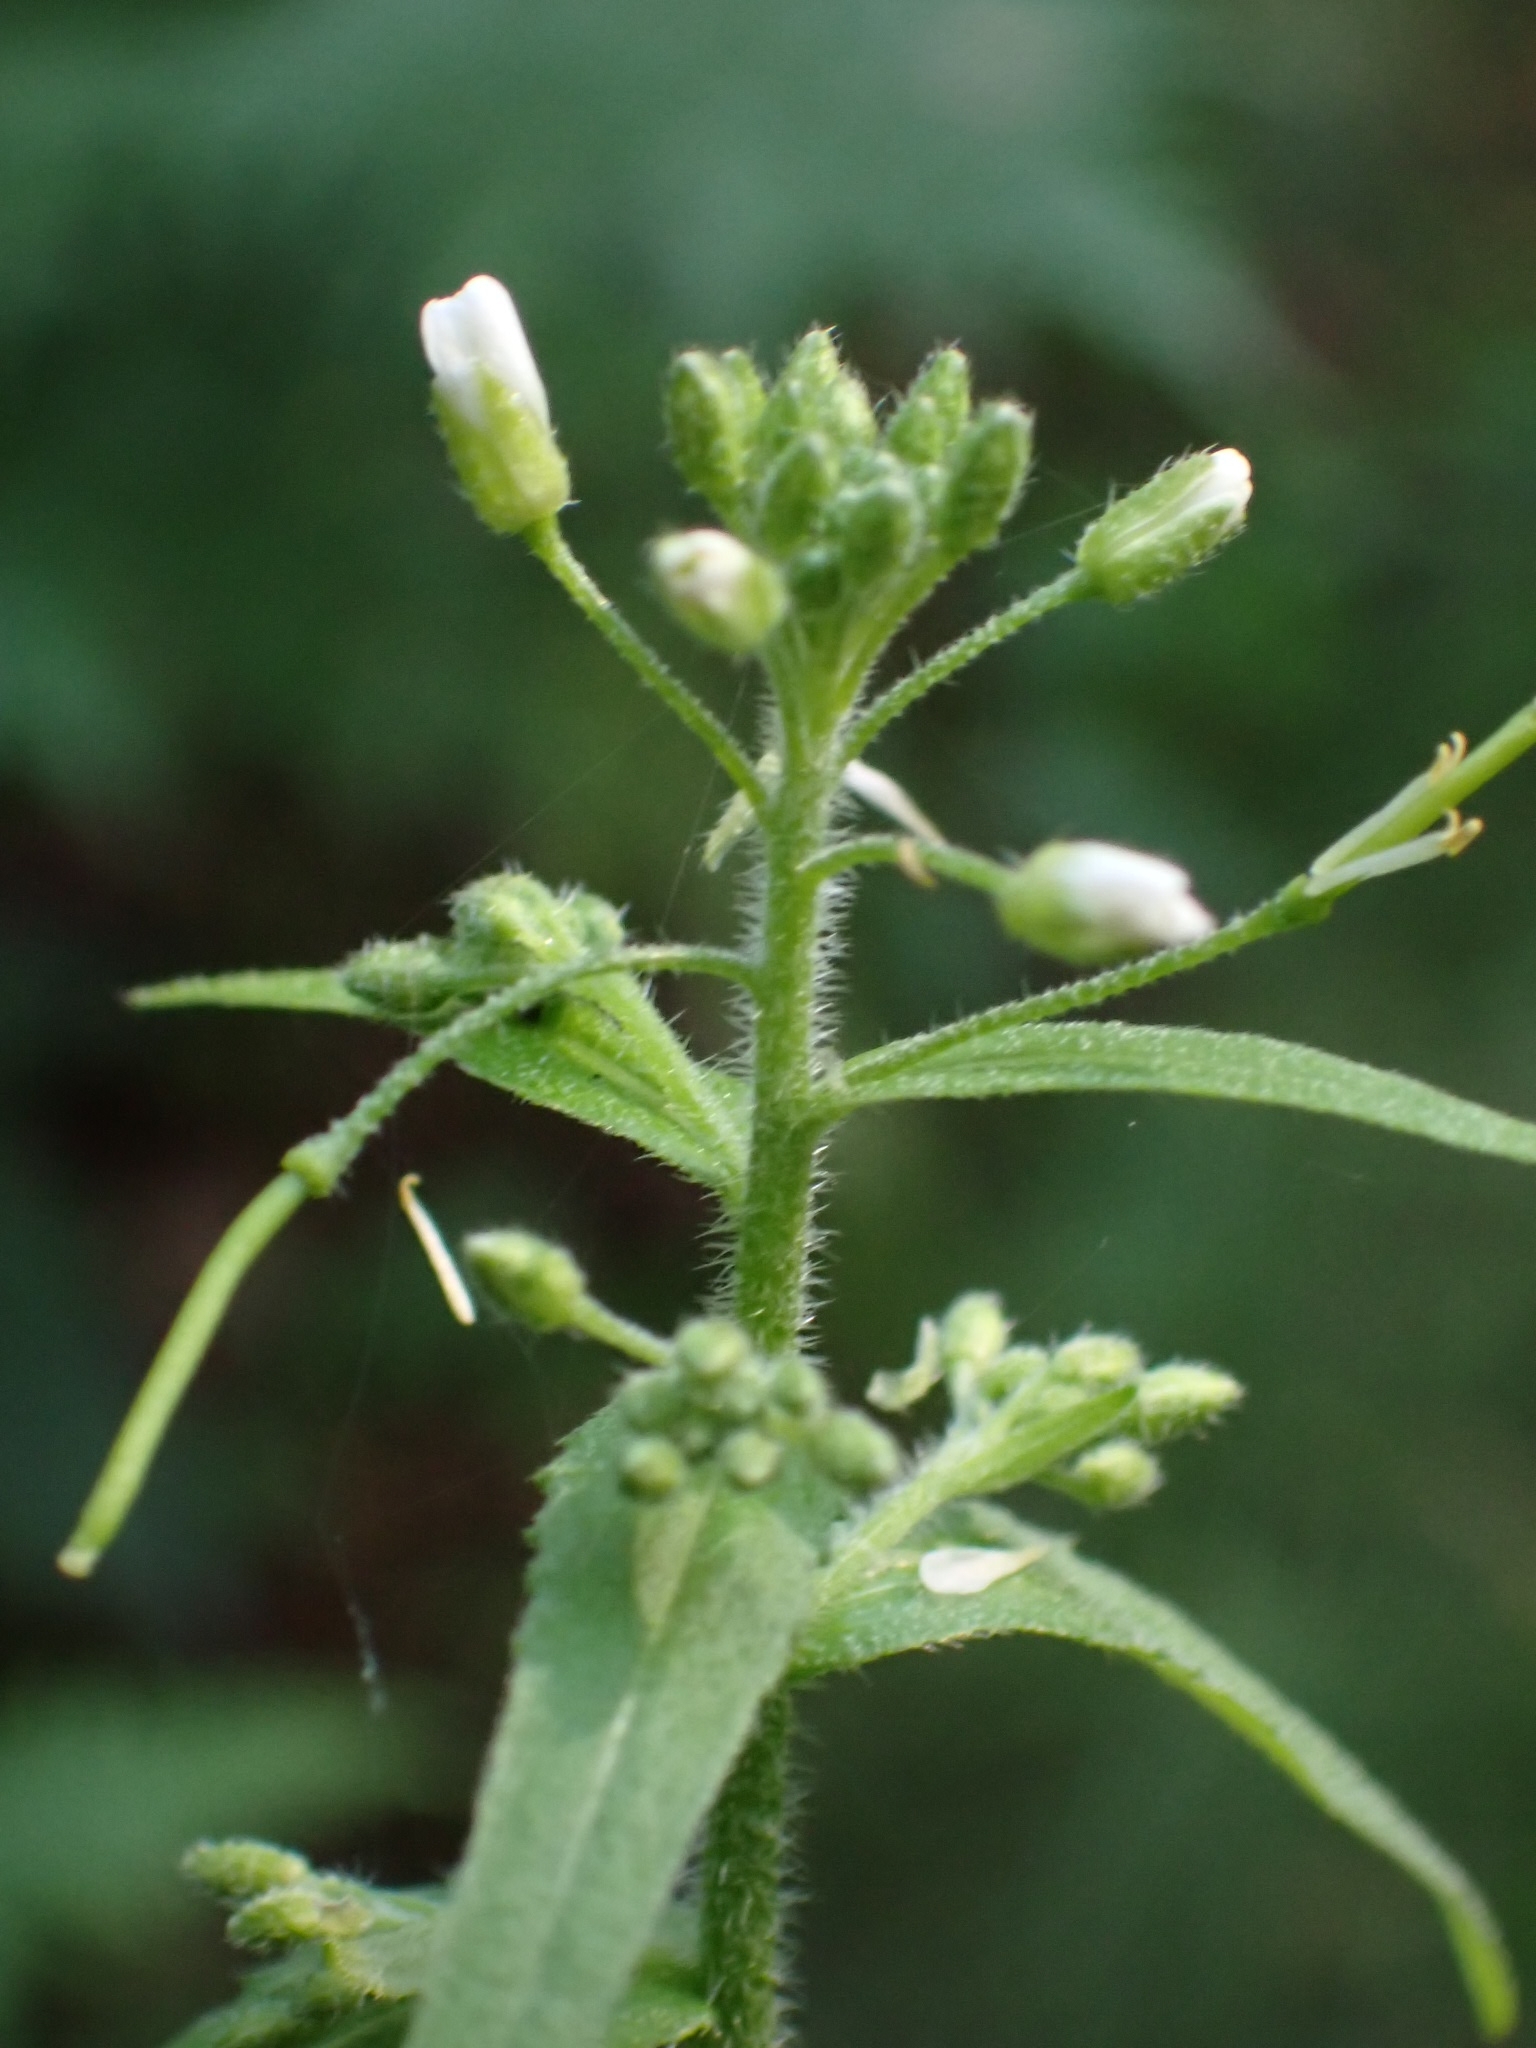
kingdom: Plantae
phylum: Tracheophyta
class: Magnoliopsida
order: Brassicales
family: Brassicaceae
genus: Catolobus
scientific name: Catolobus pendulus
